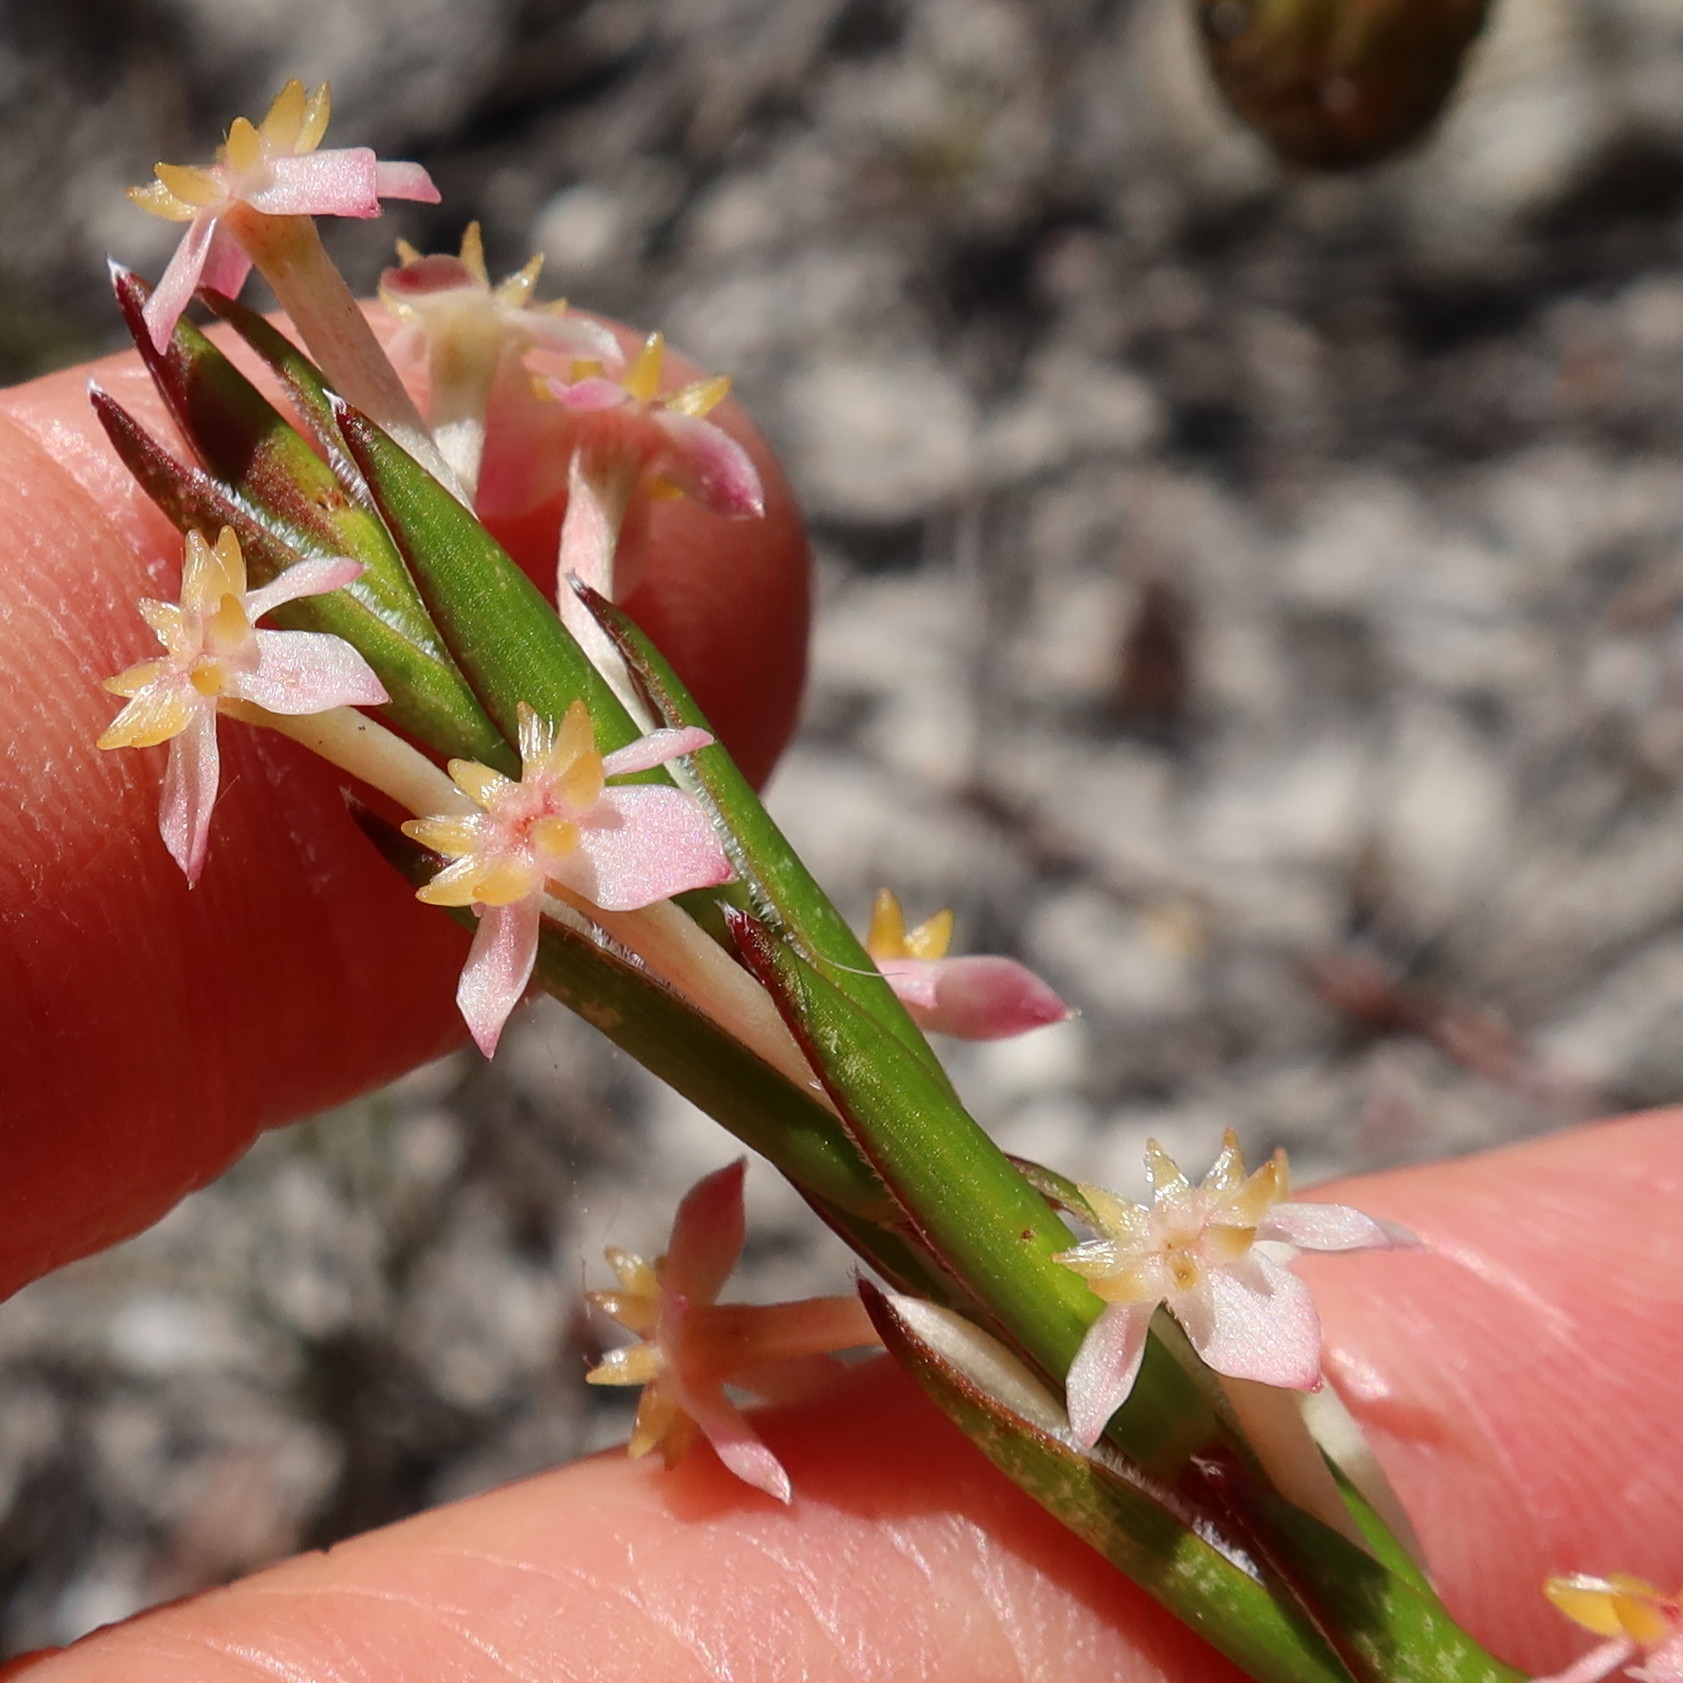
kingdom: Plantae
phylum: Tracheophyta
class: Magnoliopsida
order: Malvales
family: Thymelaeaceae
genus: Struthiola
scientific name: Struthiola ciliata
